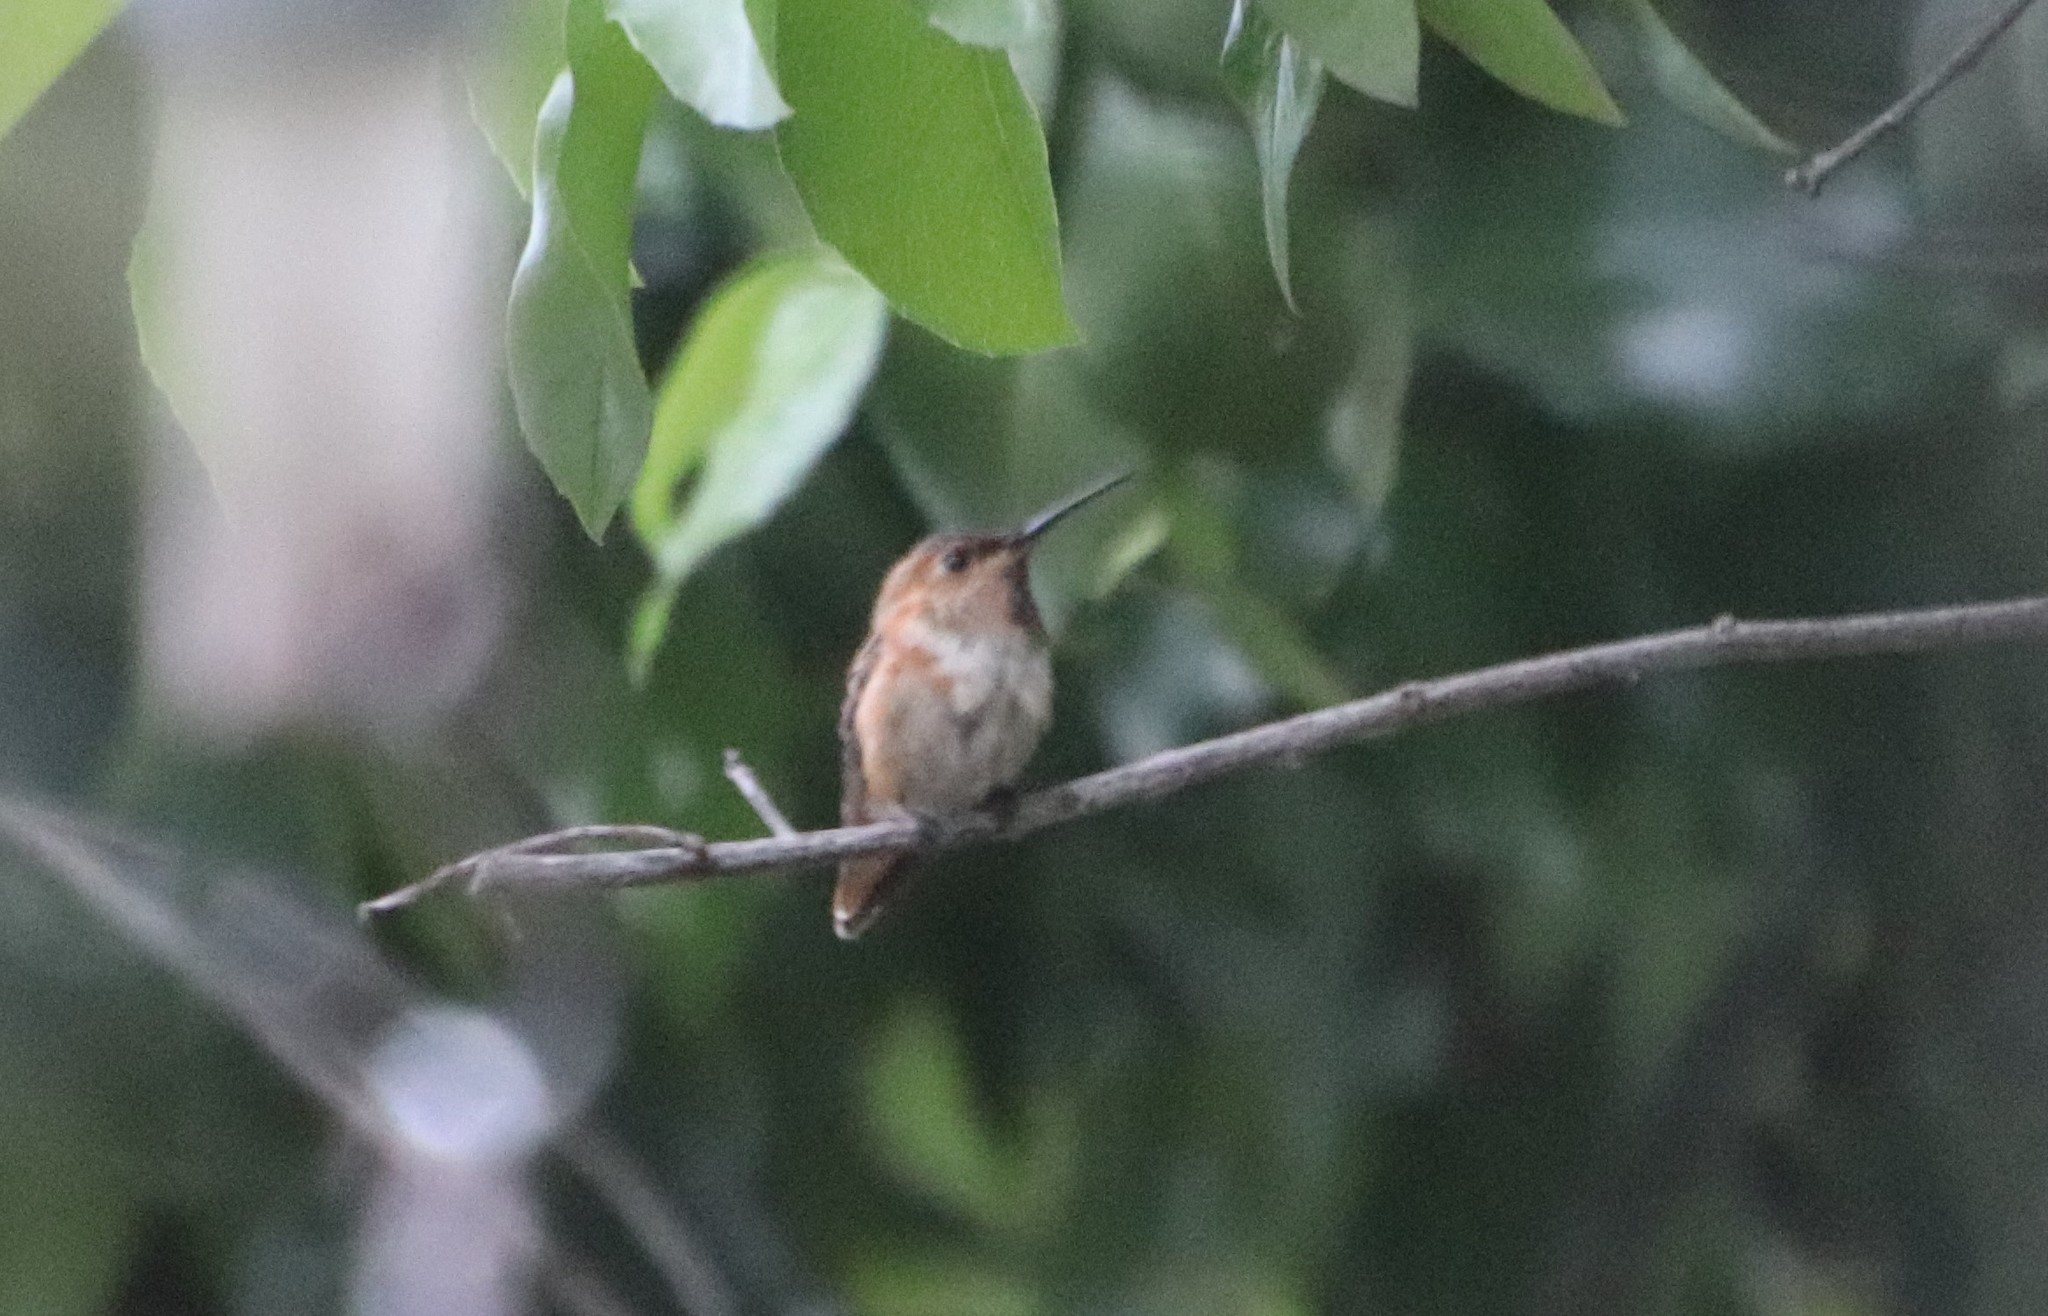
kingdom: Animalia
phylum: Chordata
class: Aves
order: Apodiformes
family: Trochilidae
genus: Selasphorus
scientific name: Selasphorus
